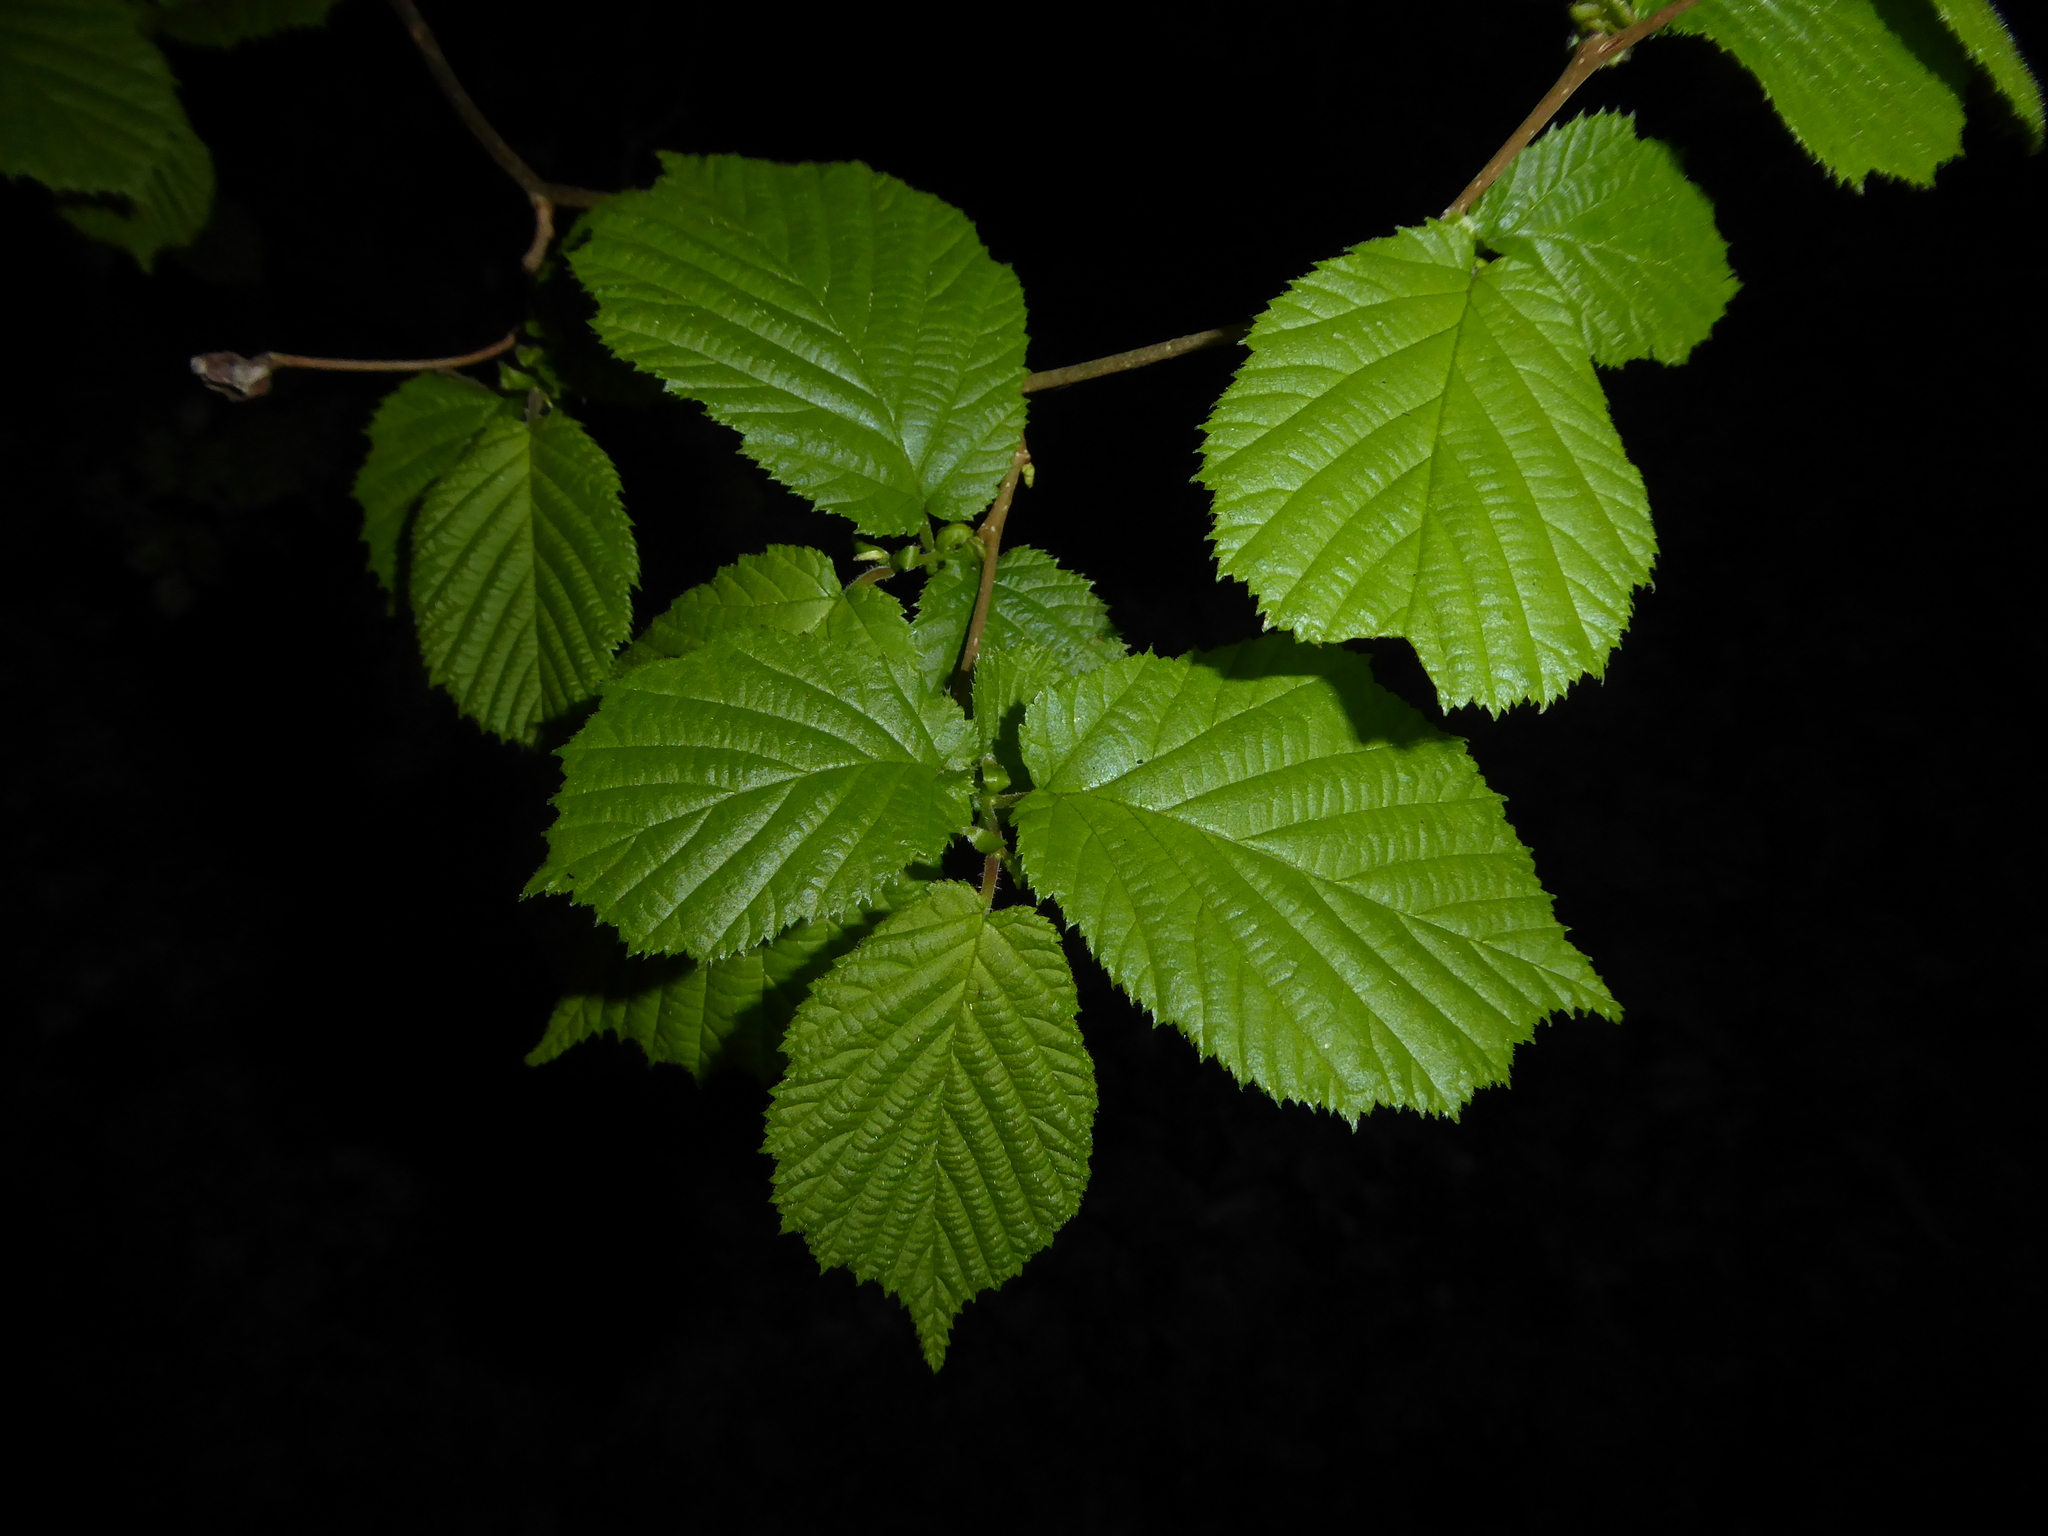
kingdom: Plantae
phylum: Tracheophyta
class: Magnoliopsida
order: Fagales
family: Betulaceae
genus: Corylus
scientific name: Corylus avellana
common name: European hazel
